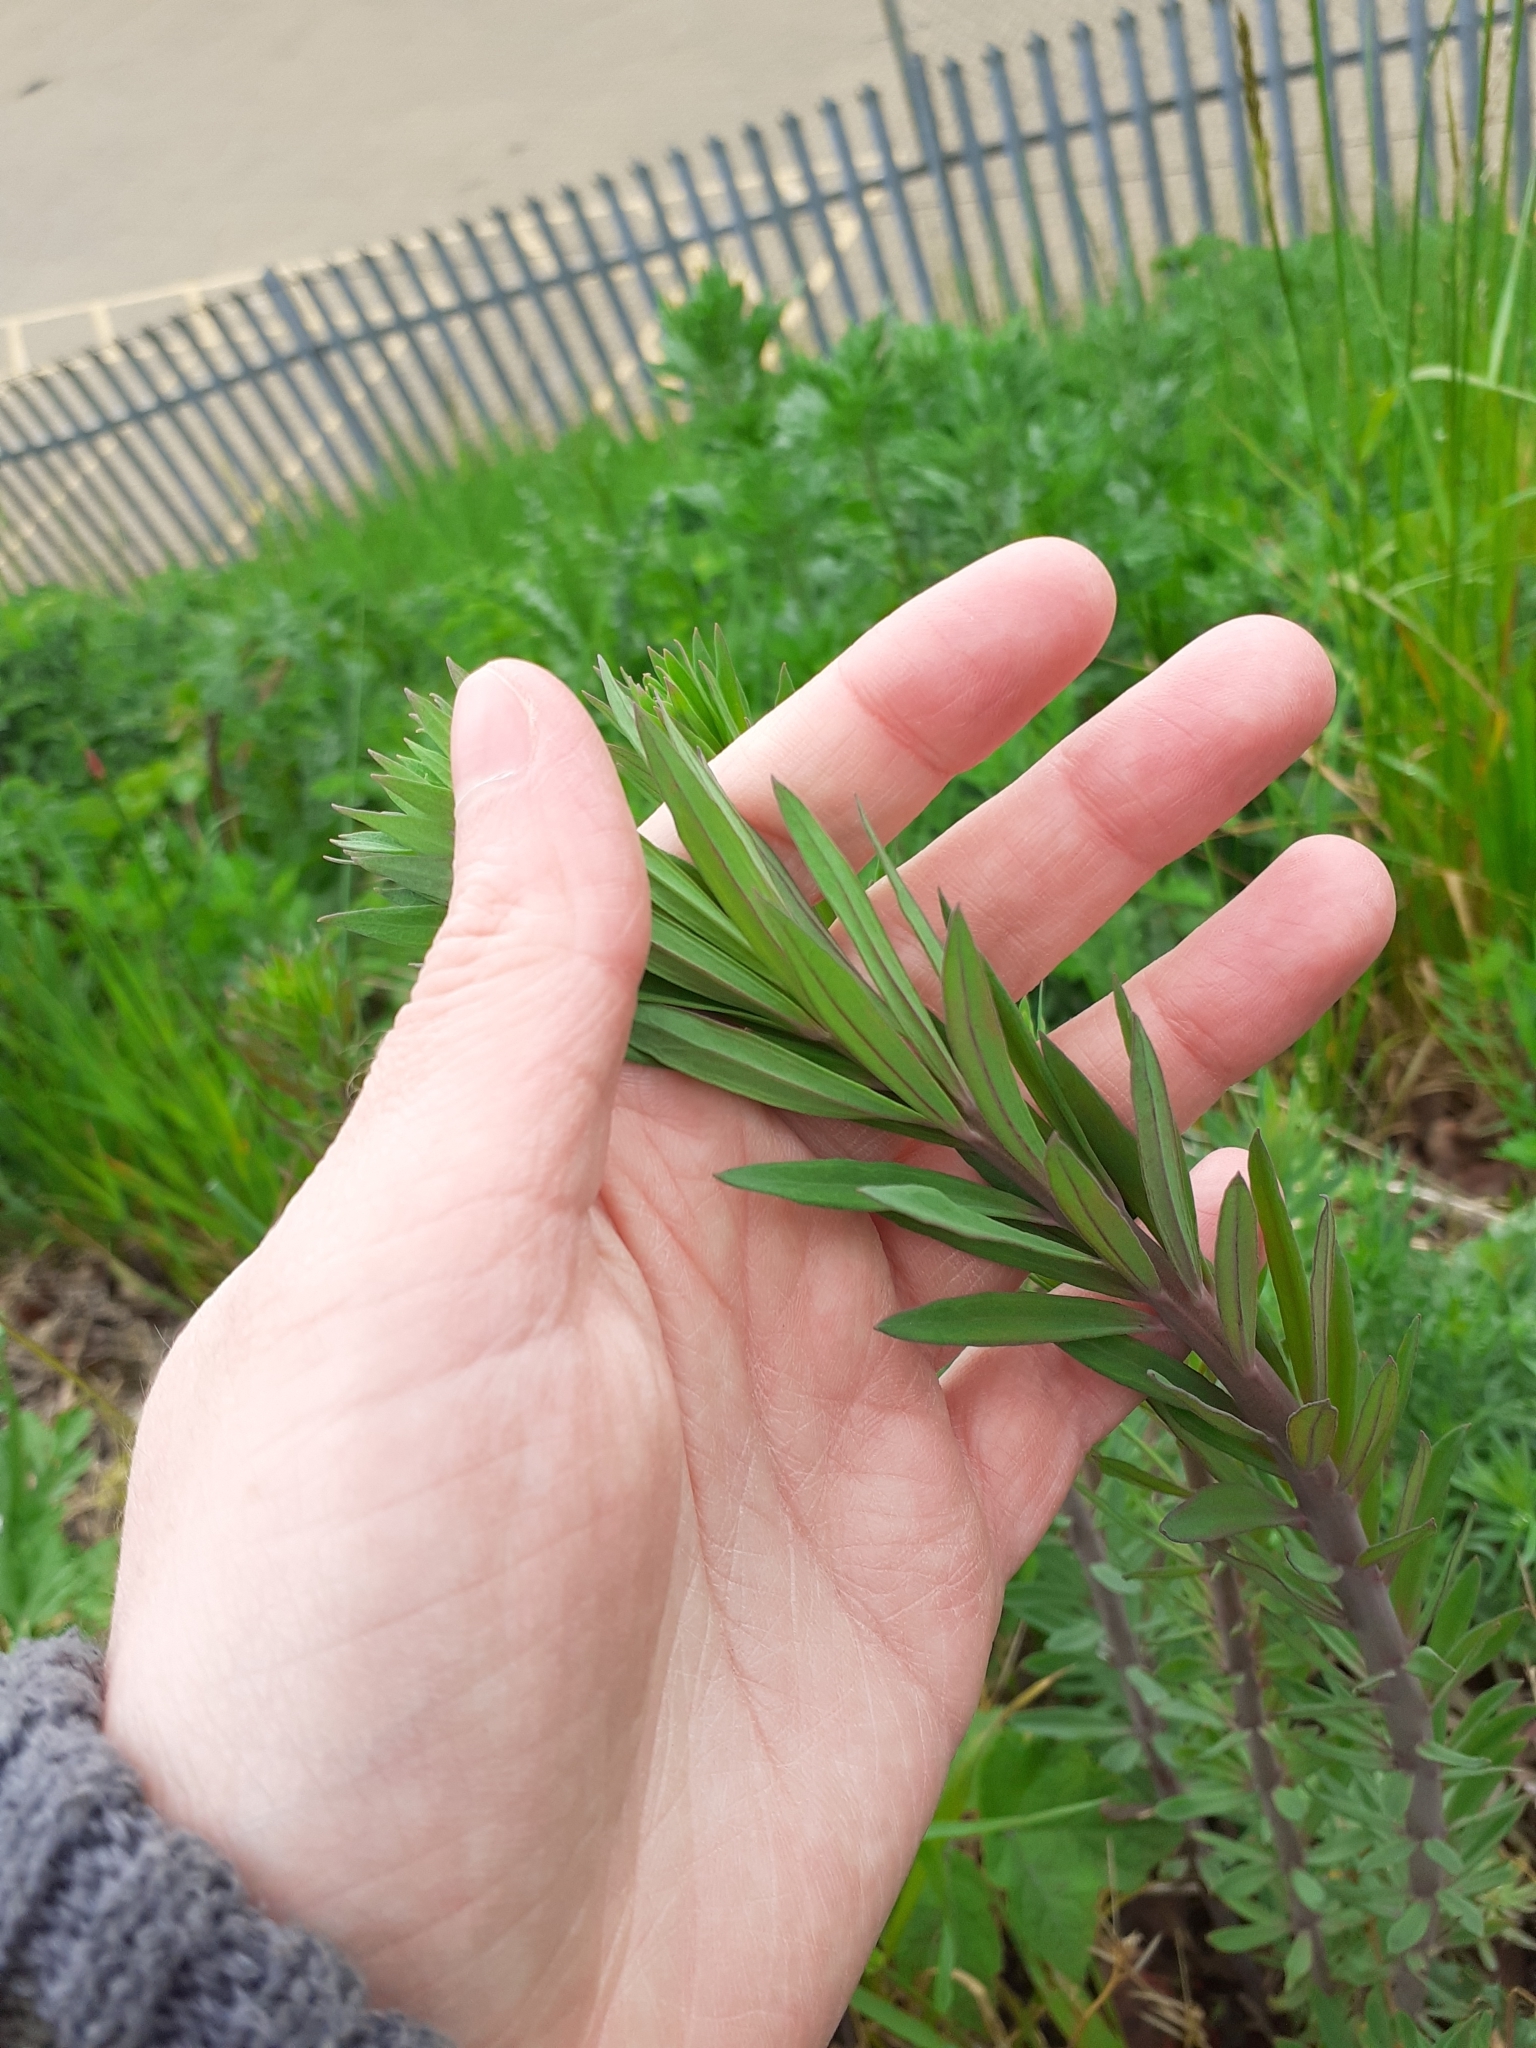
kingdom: Plantae
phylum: Tracheophyta
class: Magnoliopsida
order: Lamiales
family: Plantaginaceae
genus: Linaria
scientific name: Linaria purpurea
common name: Purple toadflax
